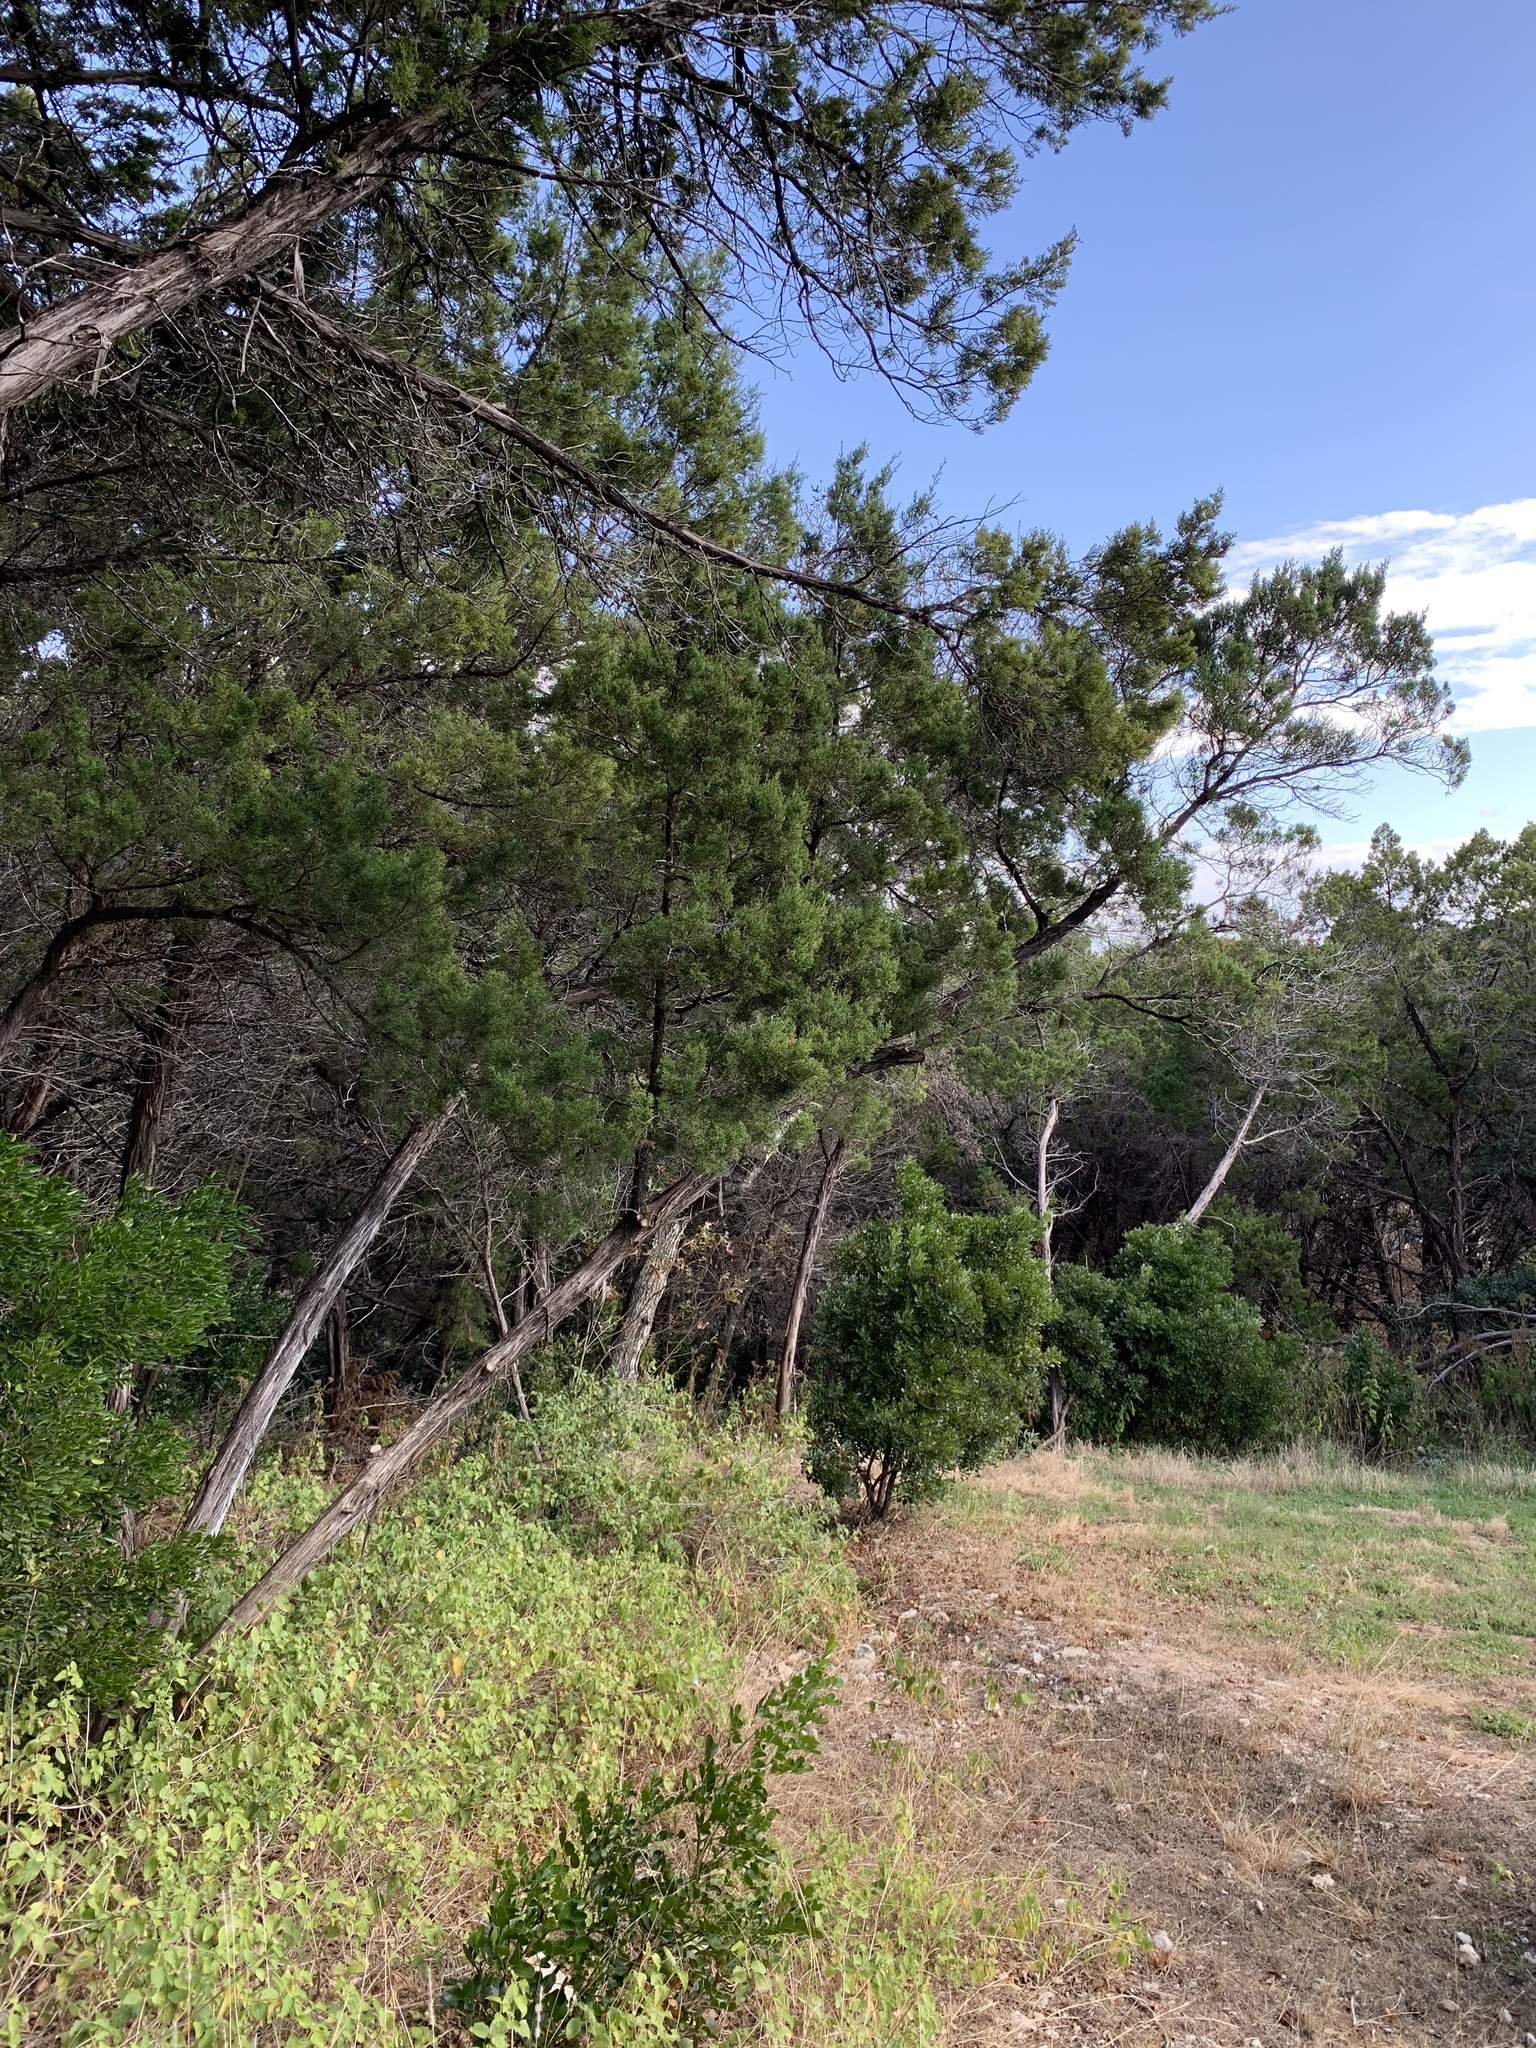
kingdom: Plantae
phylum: Tracheophyta
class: Pinopsida
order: Pinales
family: Cupressaceae
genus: Juniperus
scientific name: Juniperus ashei
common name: Mexican juniper
